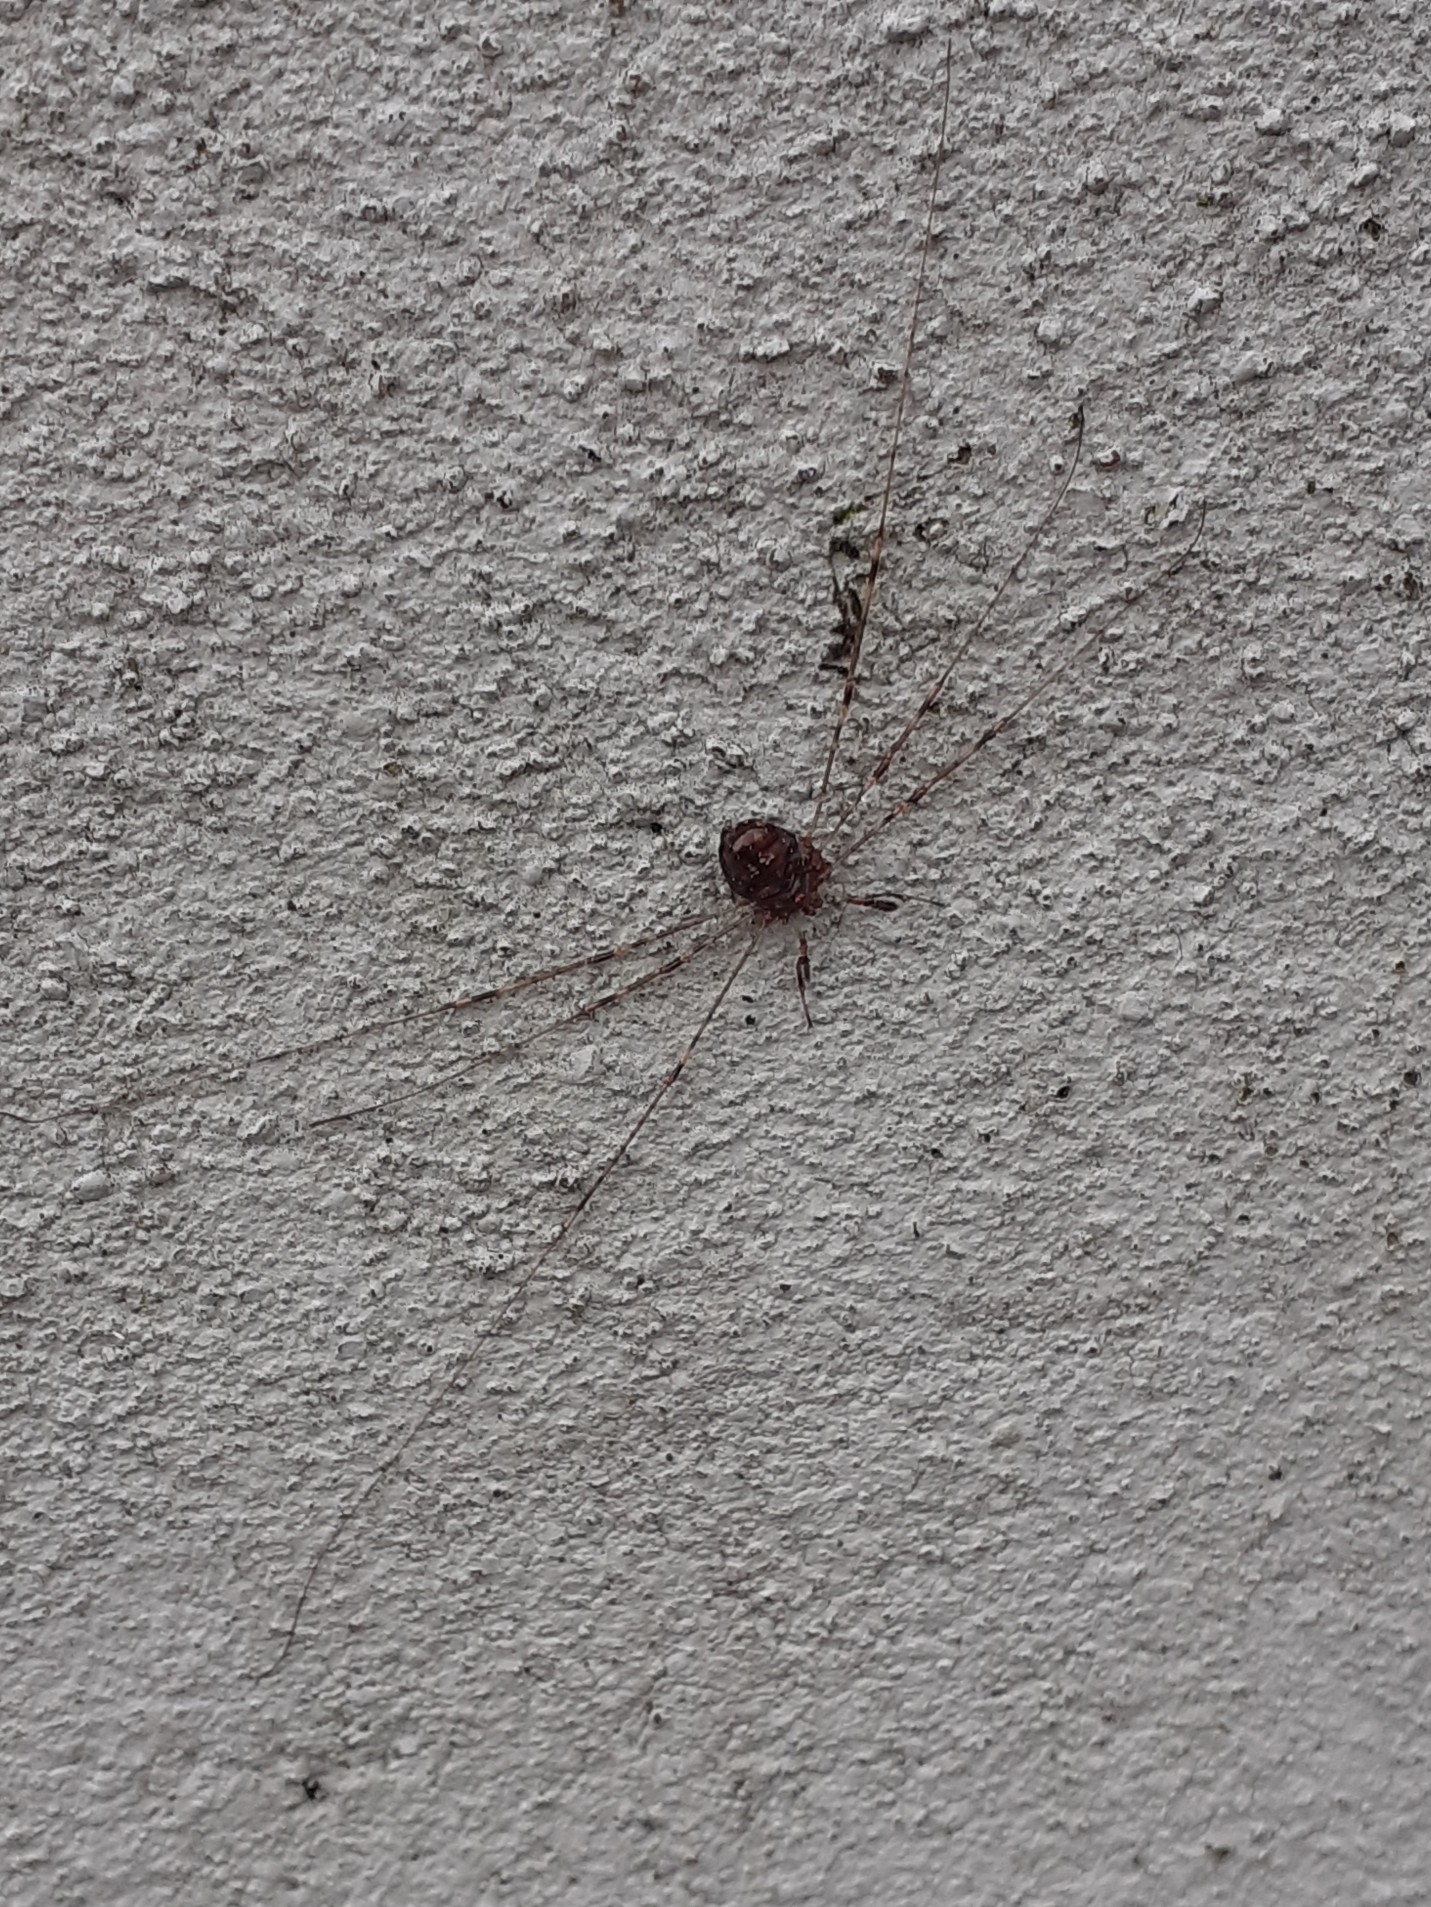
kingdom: Animalia
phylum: Arthropoda
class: Arachnida
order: Opiliones
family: Phalangiidae
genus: Dicranopalpus
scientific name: Dicranopalpus ramosus
